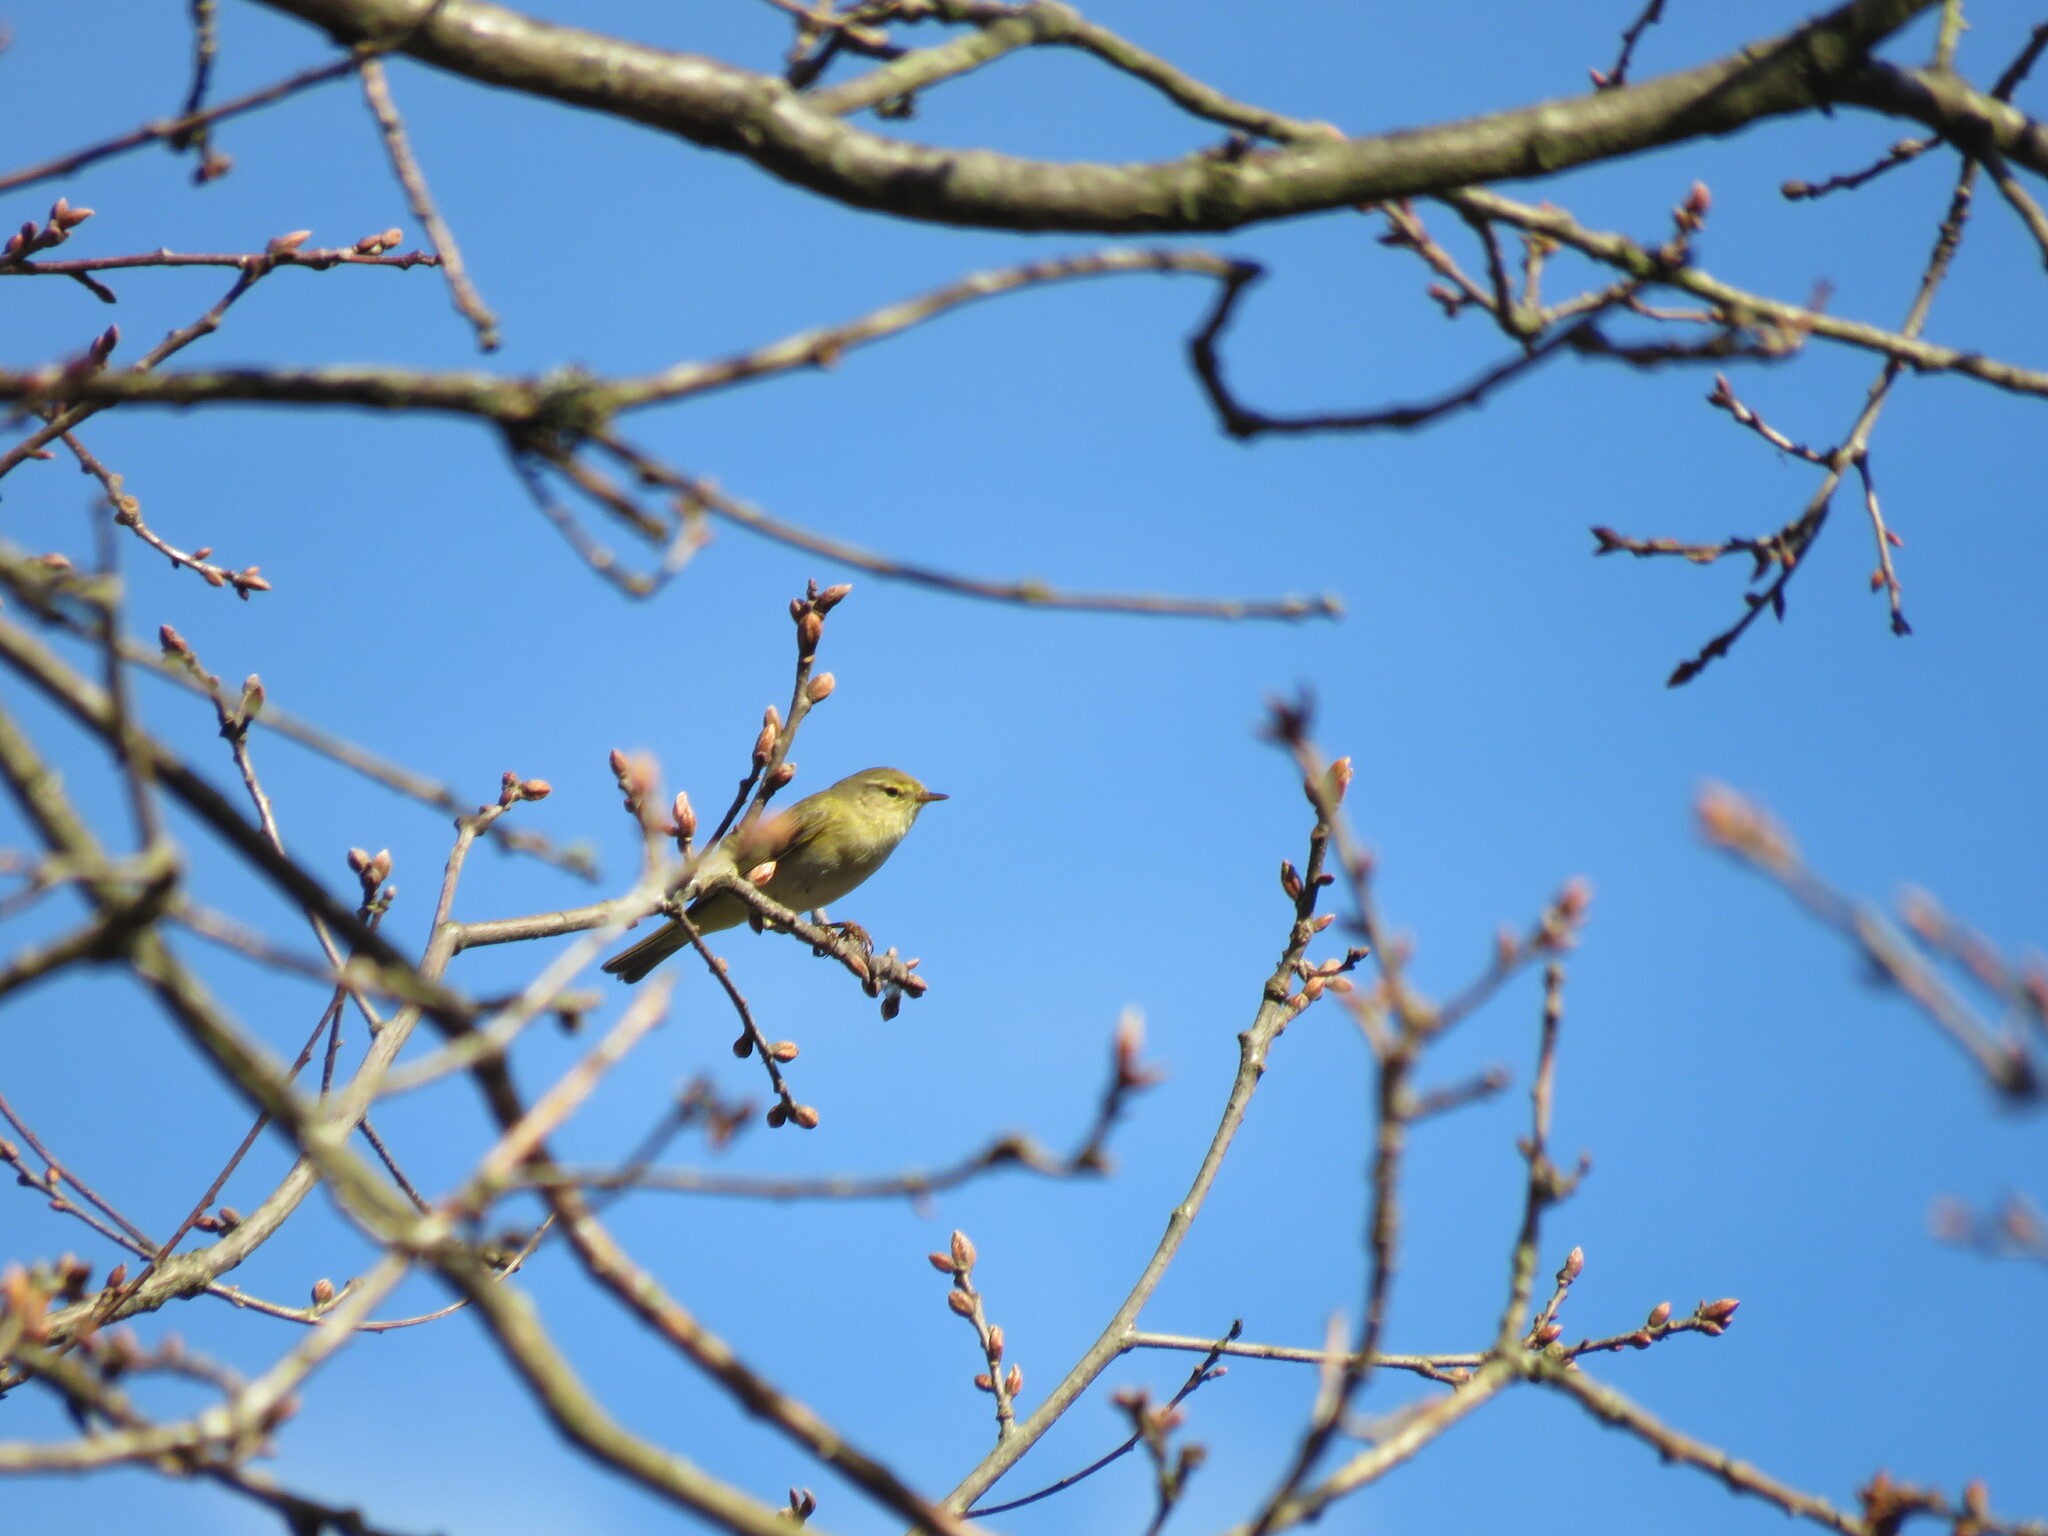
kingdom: Animalia
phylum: Chordata
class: Aves
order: Passeriformes
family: Phylloscopidae
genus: Phylloscopus
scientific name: Phylloscopus collybita
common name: Common chiffchaff
